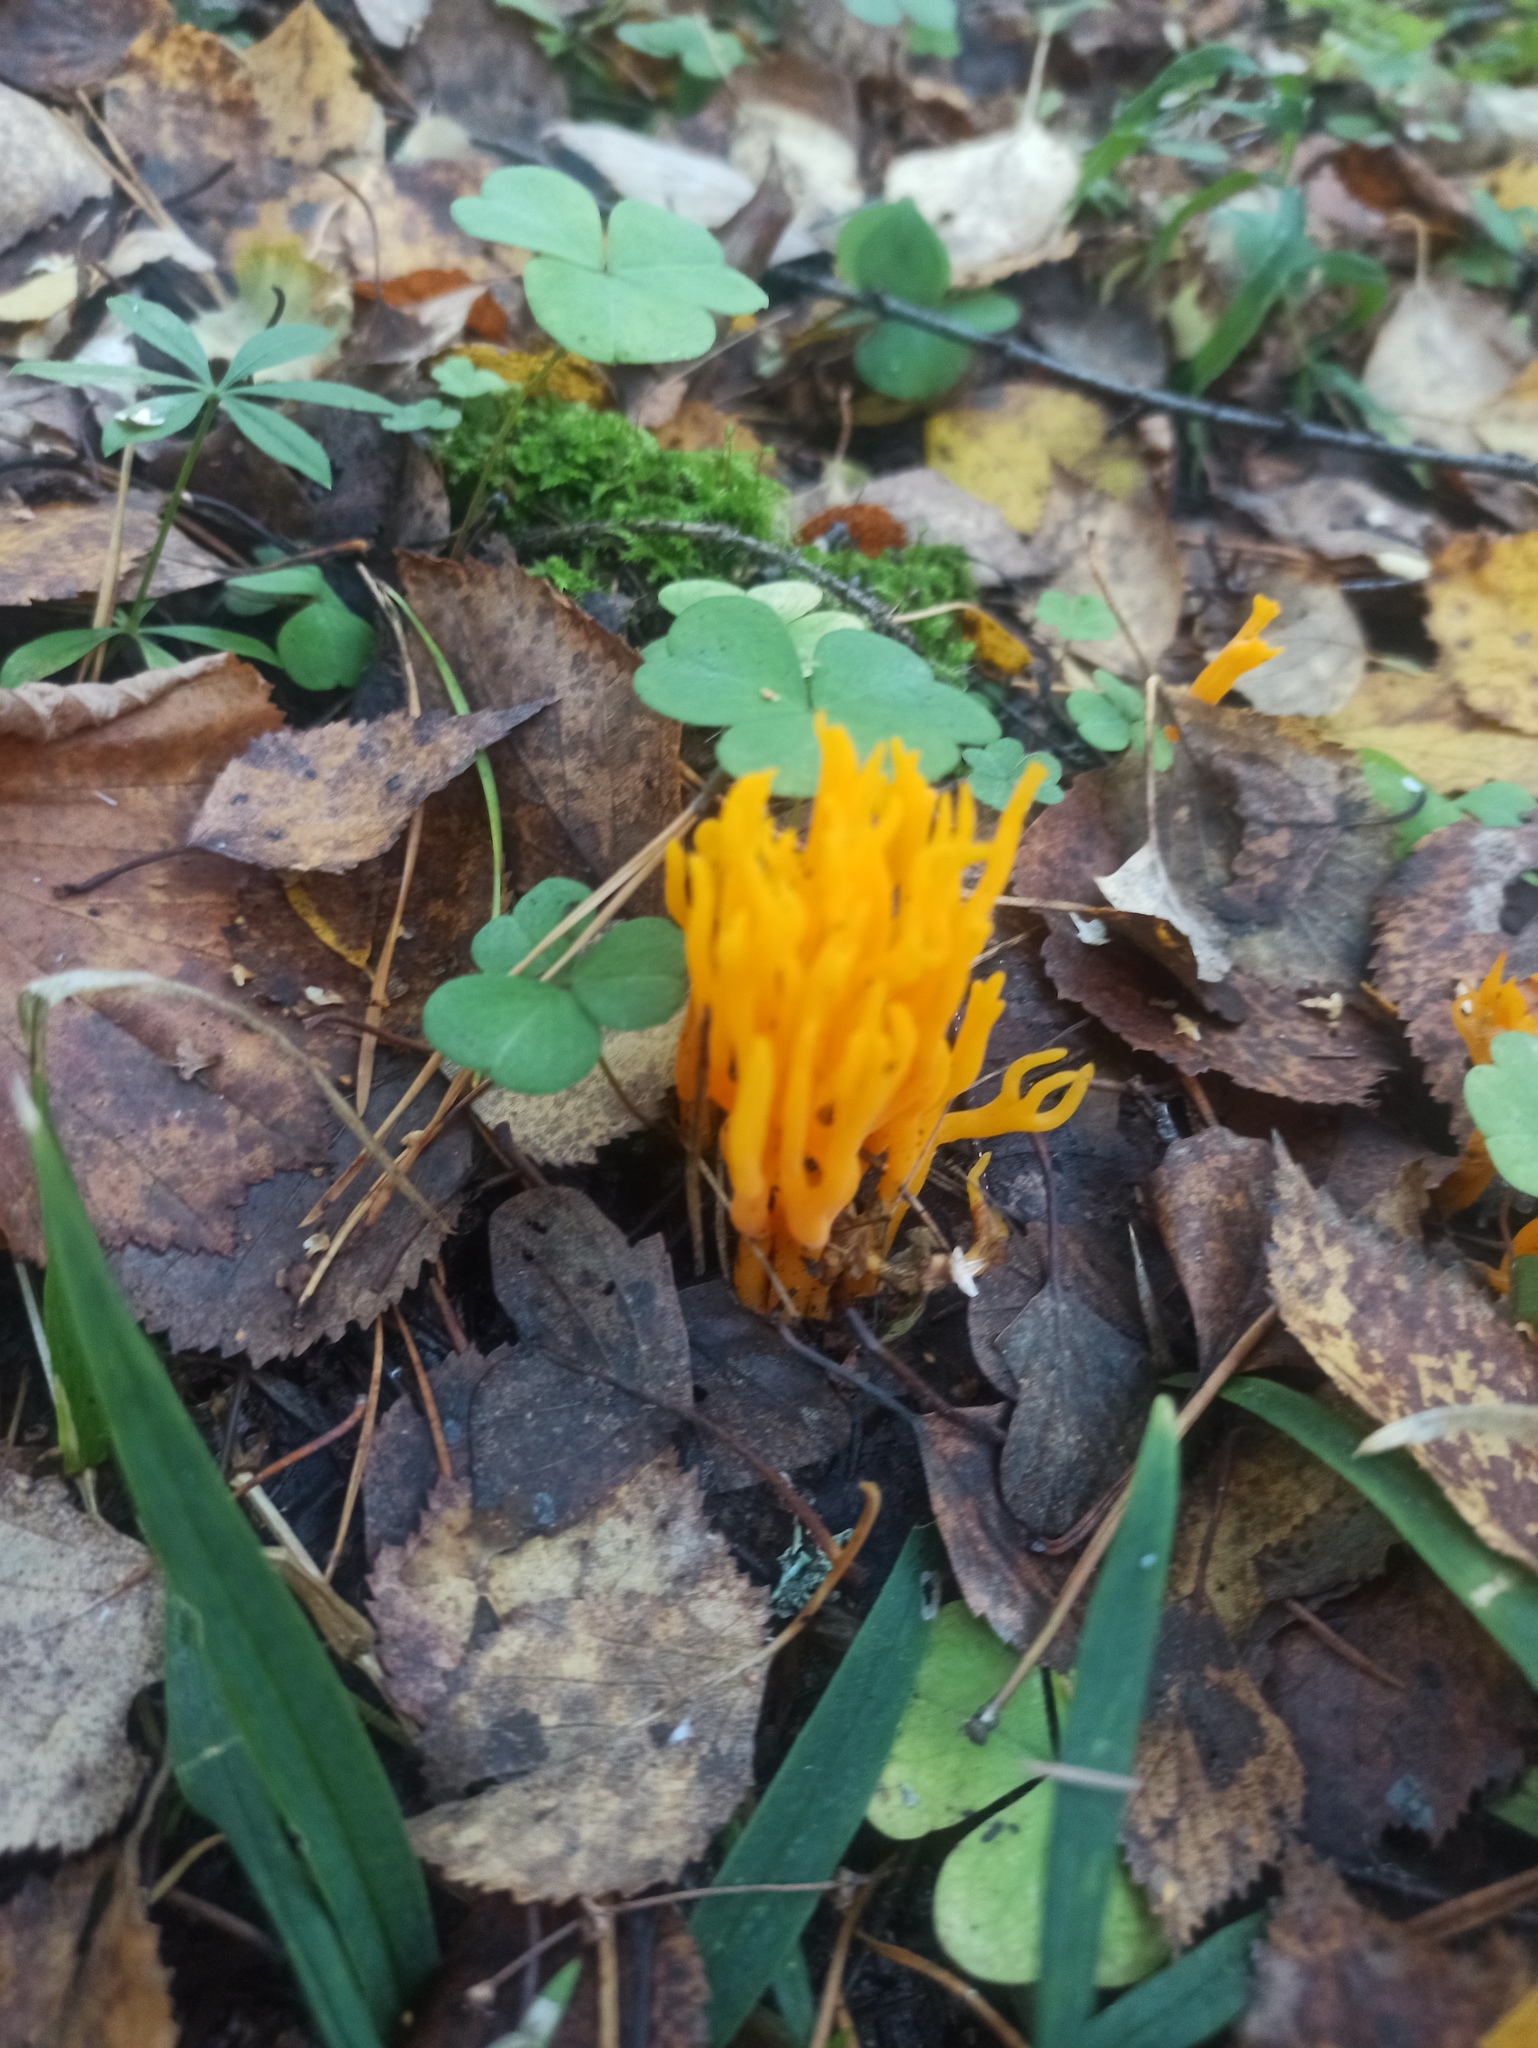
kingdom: Fungi
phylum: Basidiomycota
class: Dacrymycetes
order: Dacrymycetales
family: Dacrymycetaceae
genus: Calocera
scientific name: Calocera viscosa
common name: Yellow stagshorn
